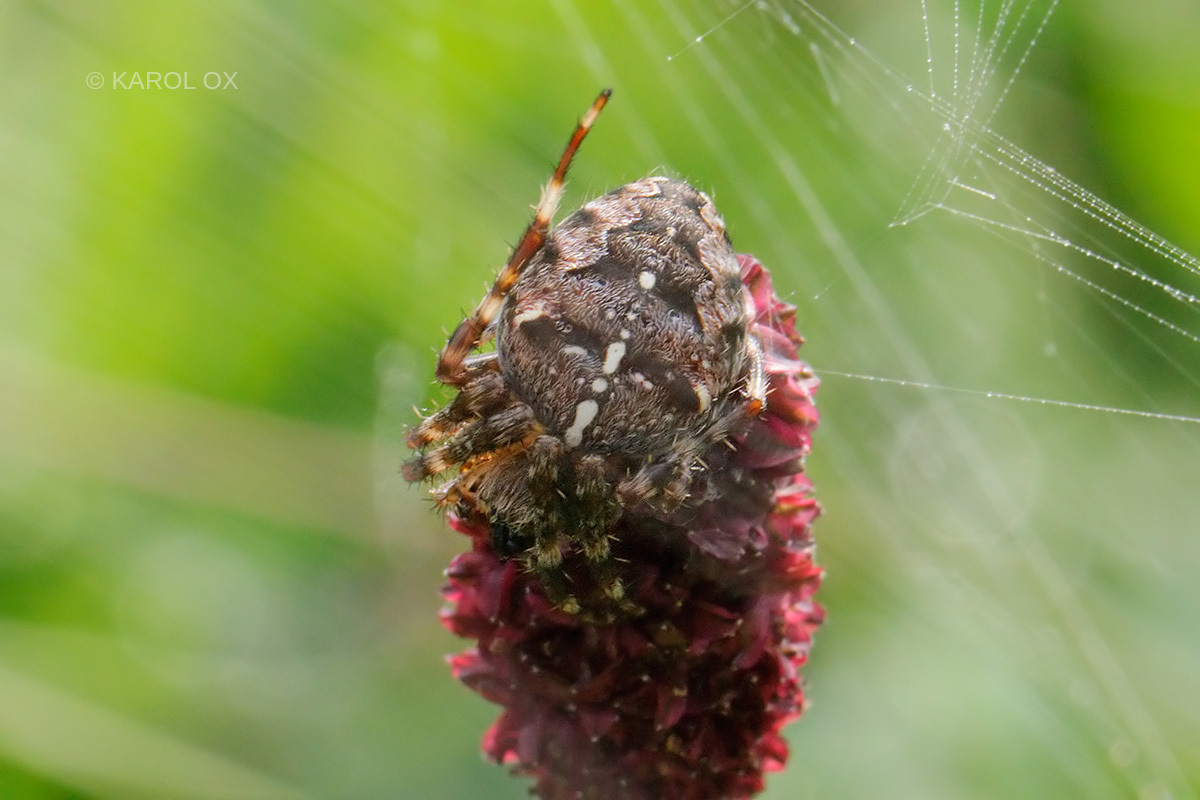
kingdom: Animalia
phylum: Arthropoda
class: Arachnida
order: Araneae
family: Araneidae
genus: Araneus
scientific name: Araneus diadematus
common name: Cross orbweaver
